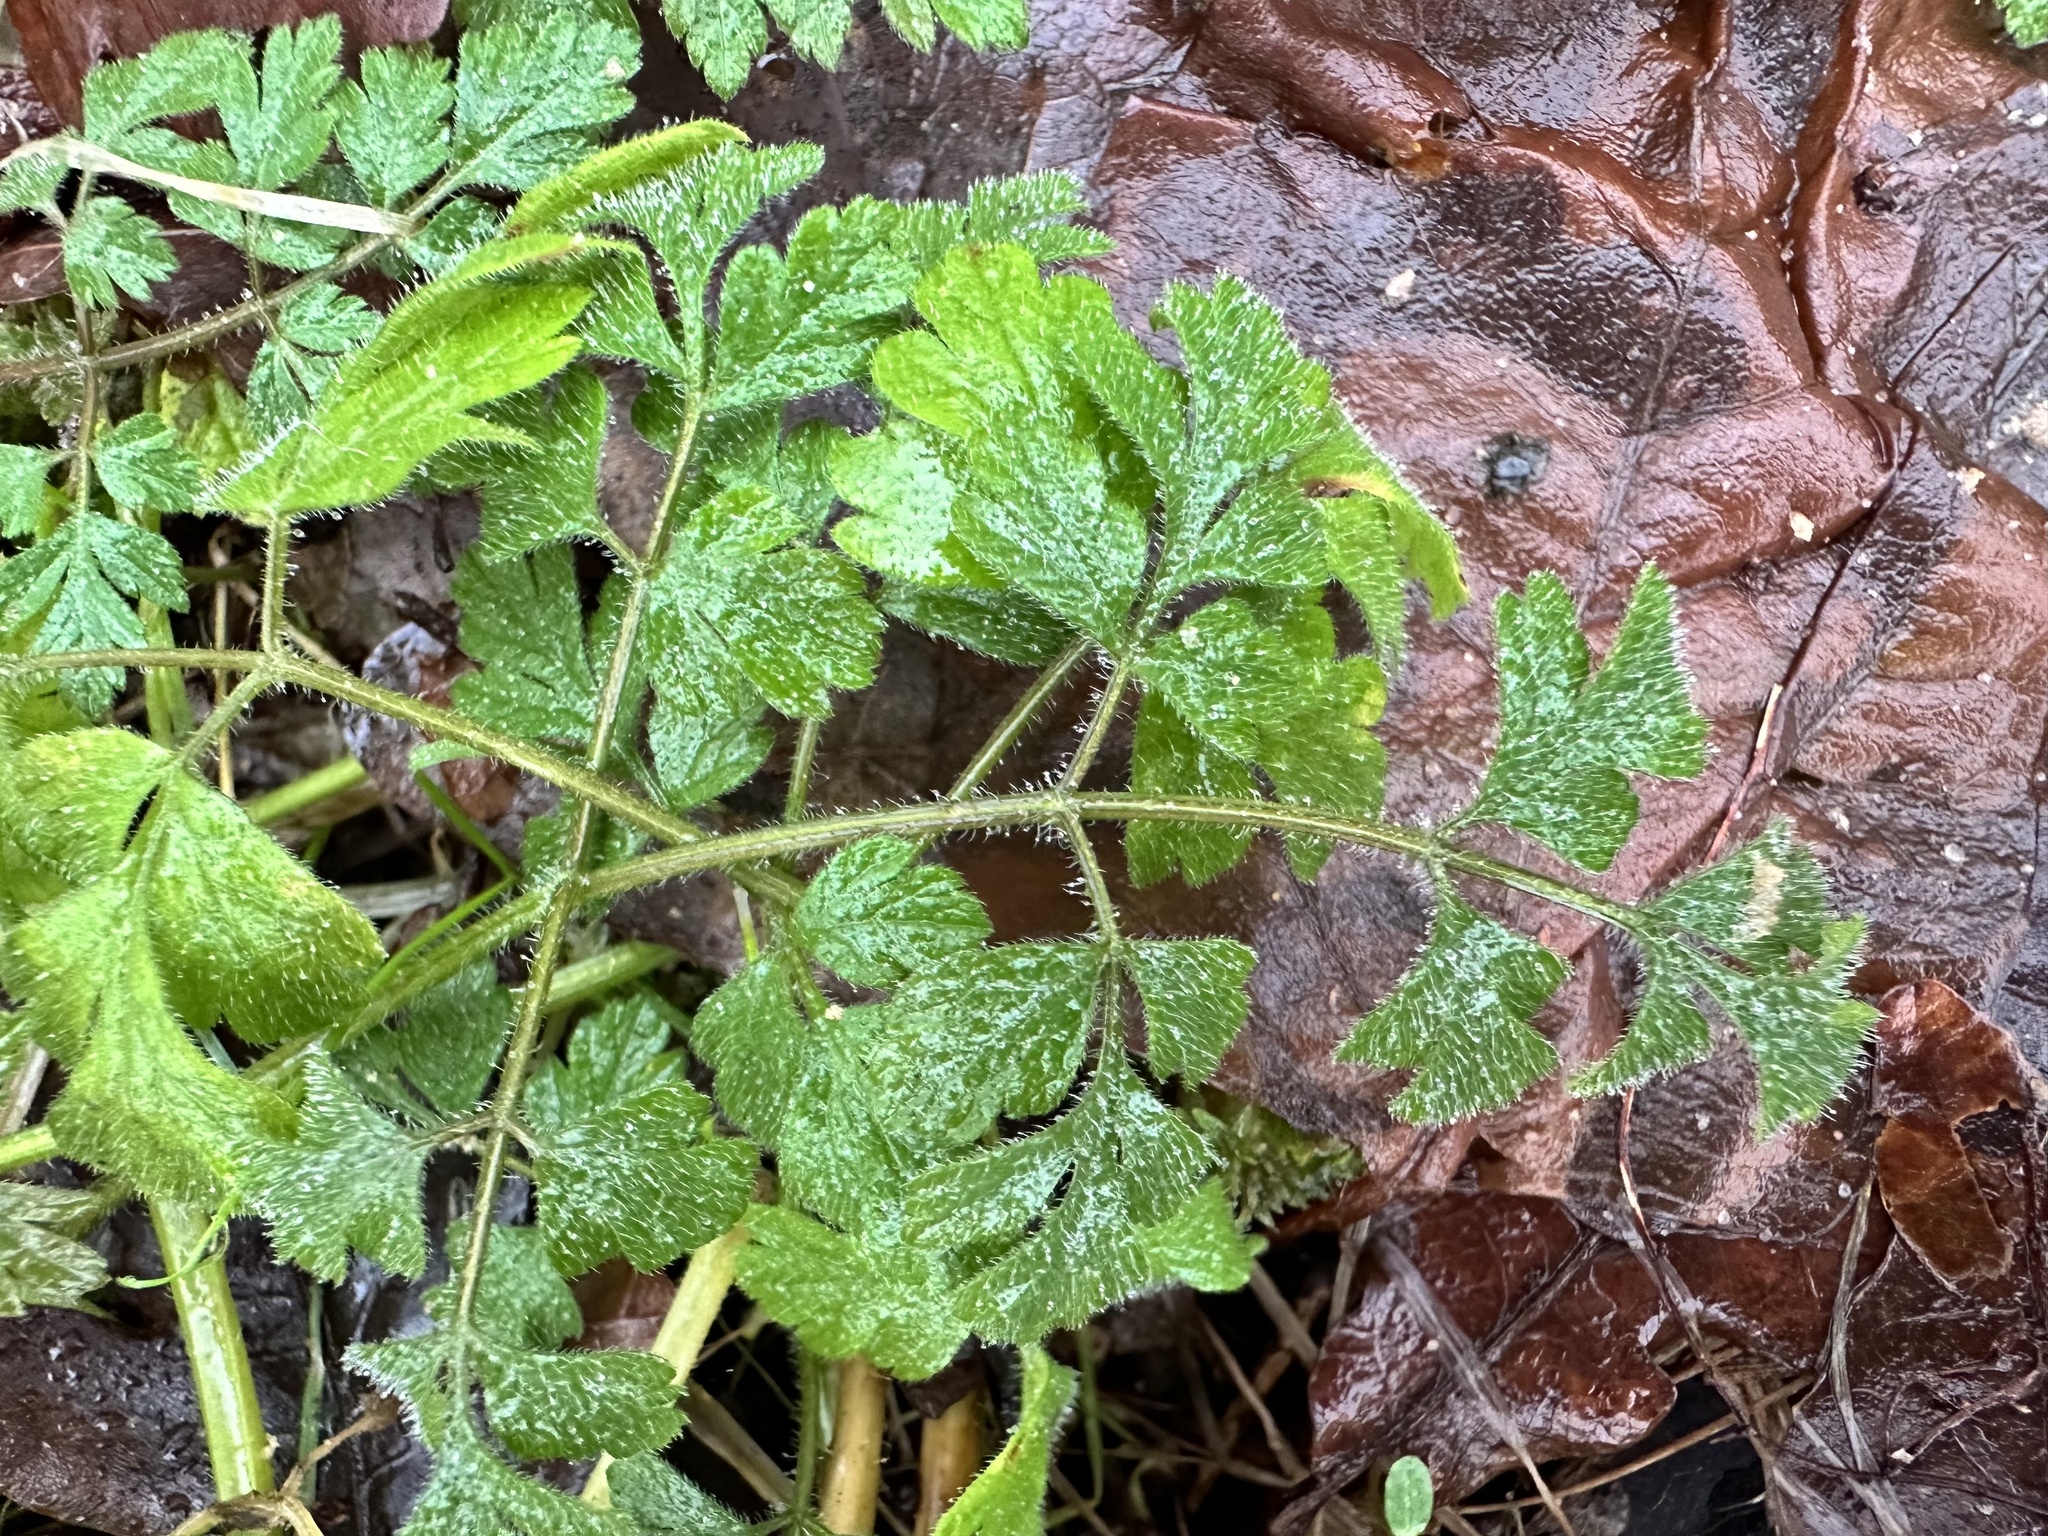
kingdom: Plantae
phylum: Tracheophyta
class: Magnoliopsida
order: Apiales
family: Apiaceae
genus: Chaerophyllum
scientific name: Chaerophyllum temulum
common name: Rough chervil
